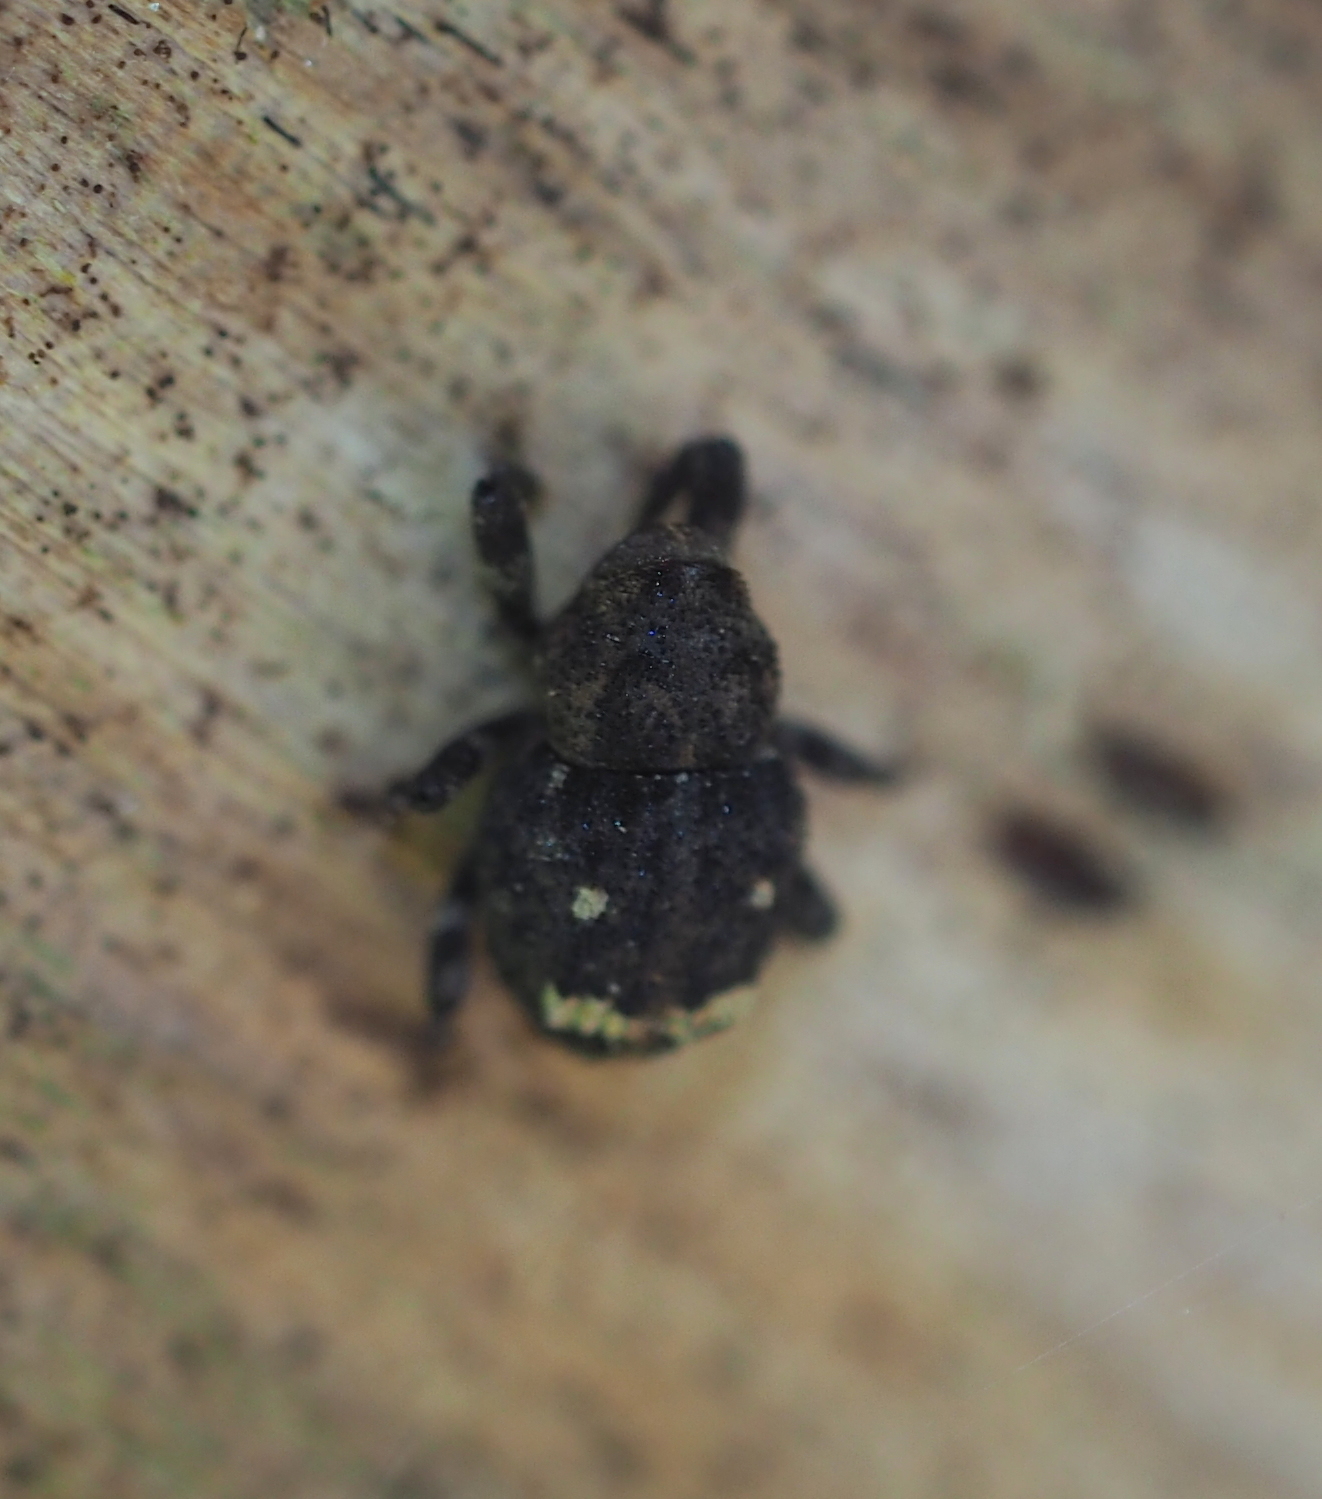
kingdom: Animalia
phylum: Arthropoda
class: Insecta
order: Coleoptera
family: Curculionidae
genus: Echinodera
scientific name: Echinodera hypocrita
